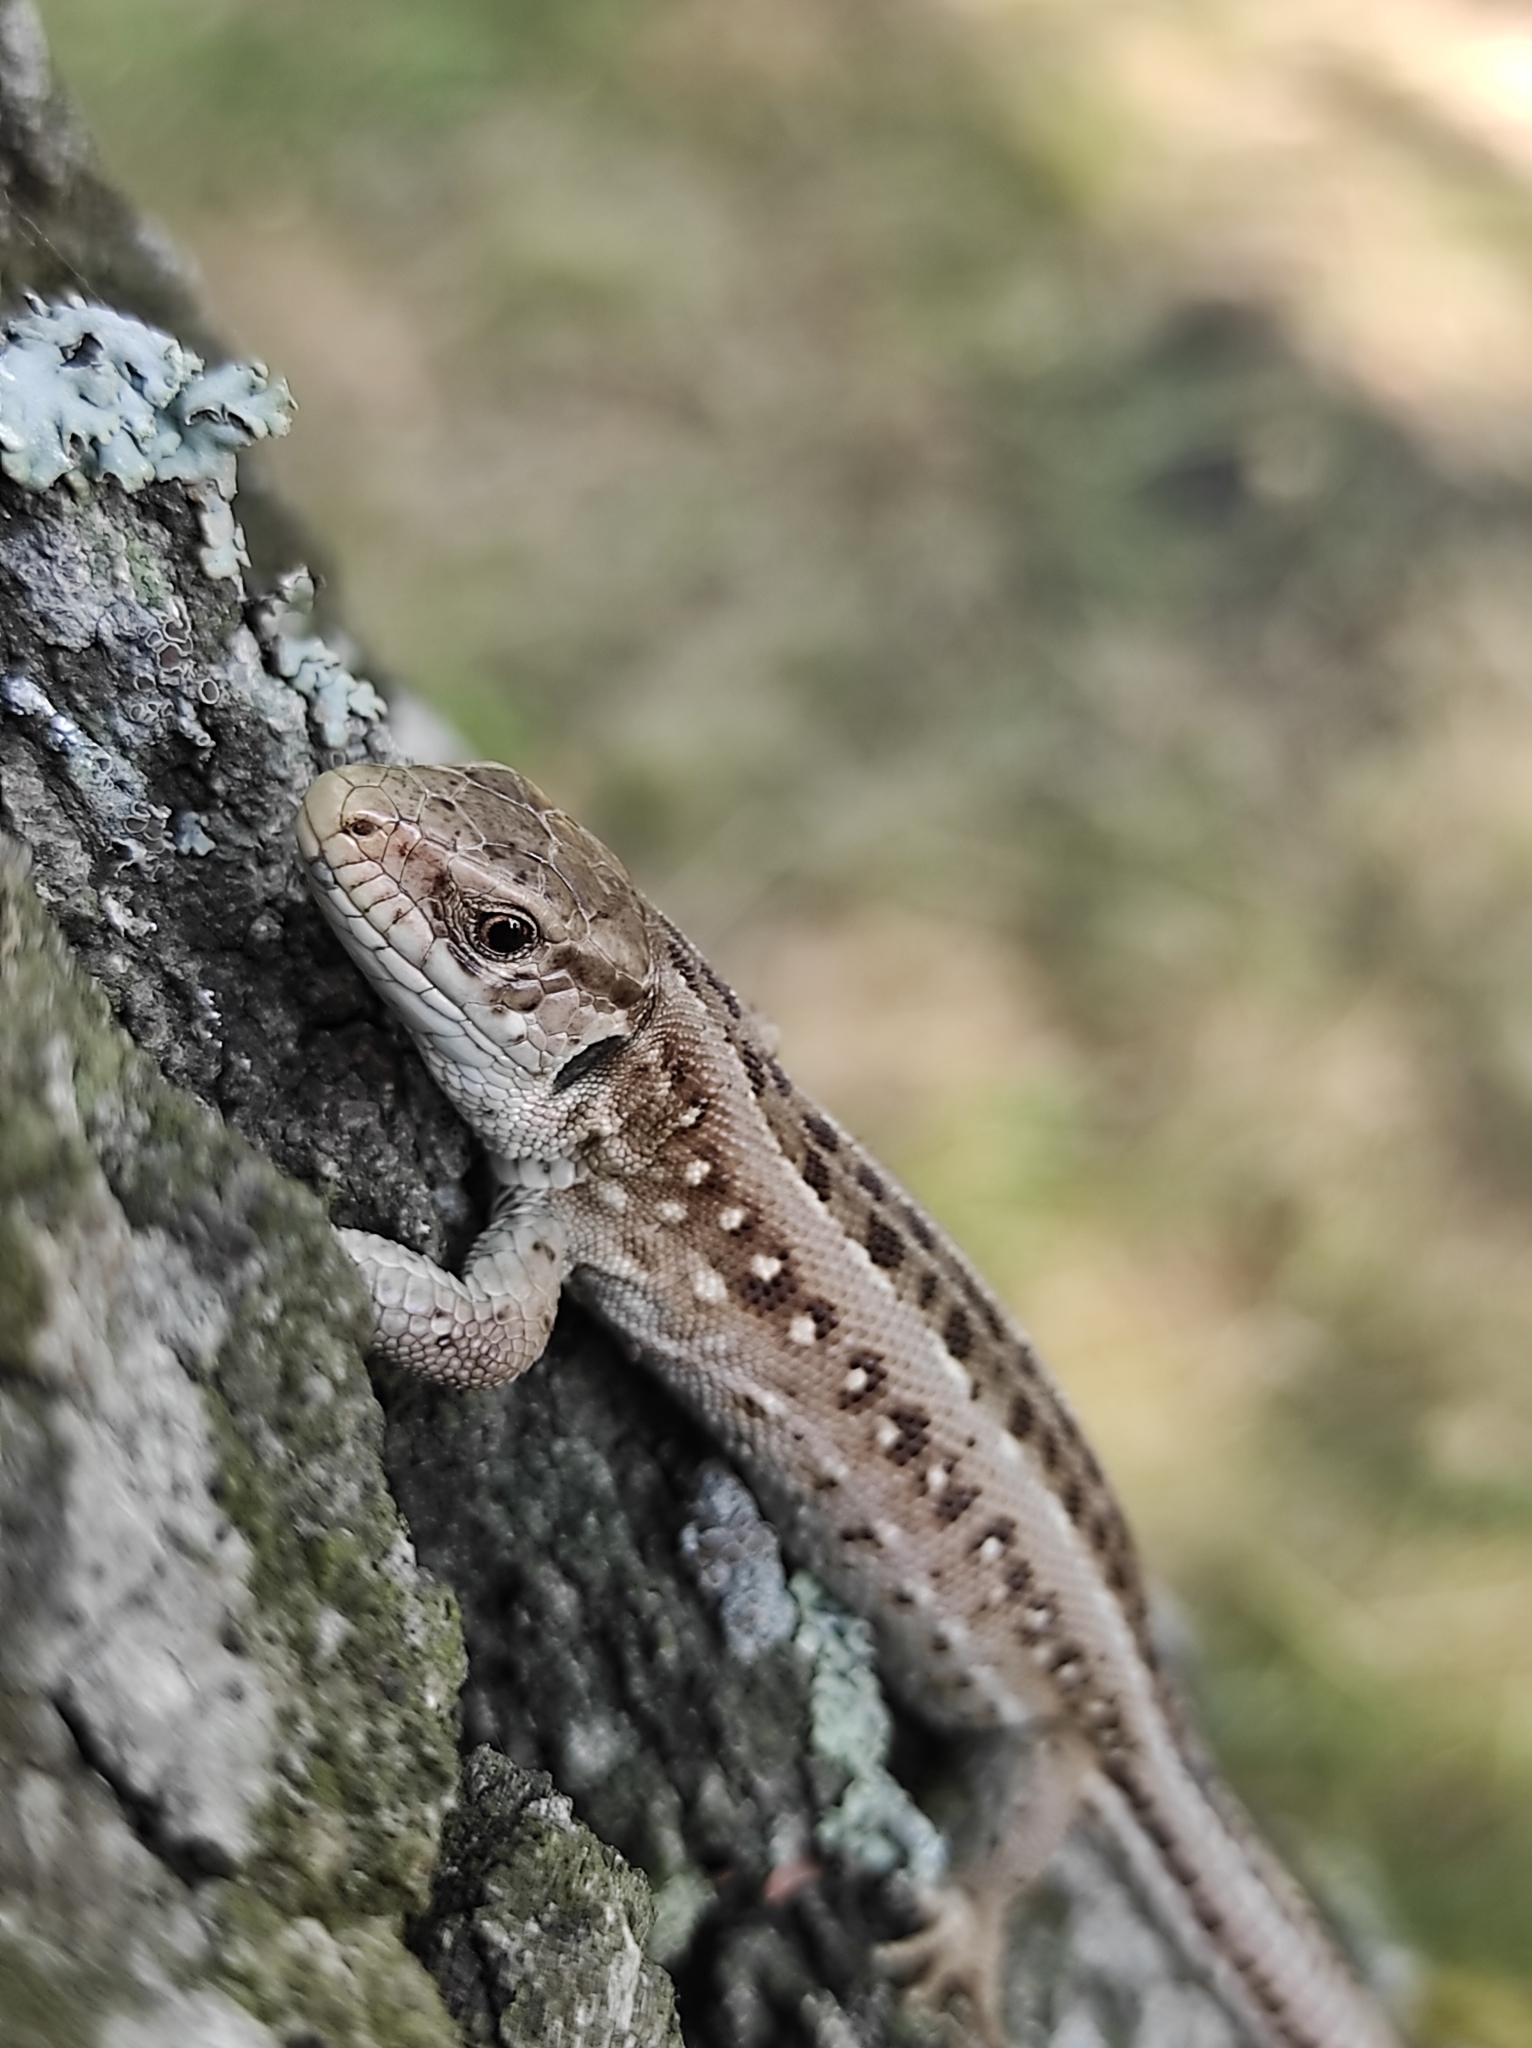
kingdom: Animalia
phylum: Chordata
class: Squamata
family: Lacertidae
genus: Lacerta
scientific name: Lacerta agilis
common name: Sand lizard
